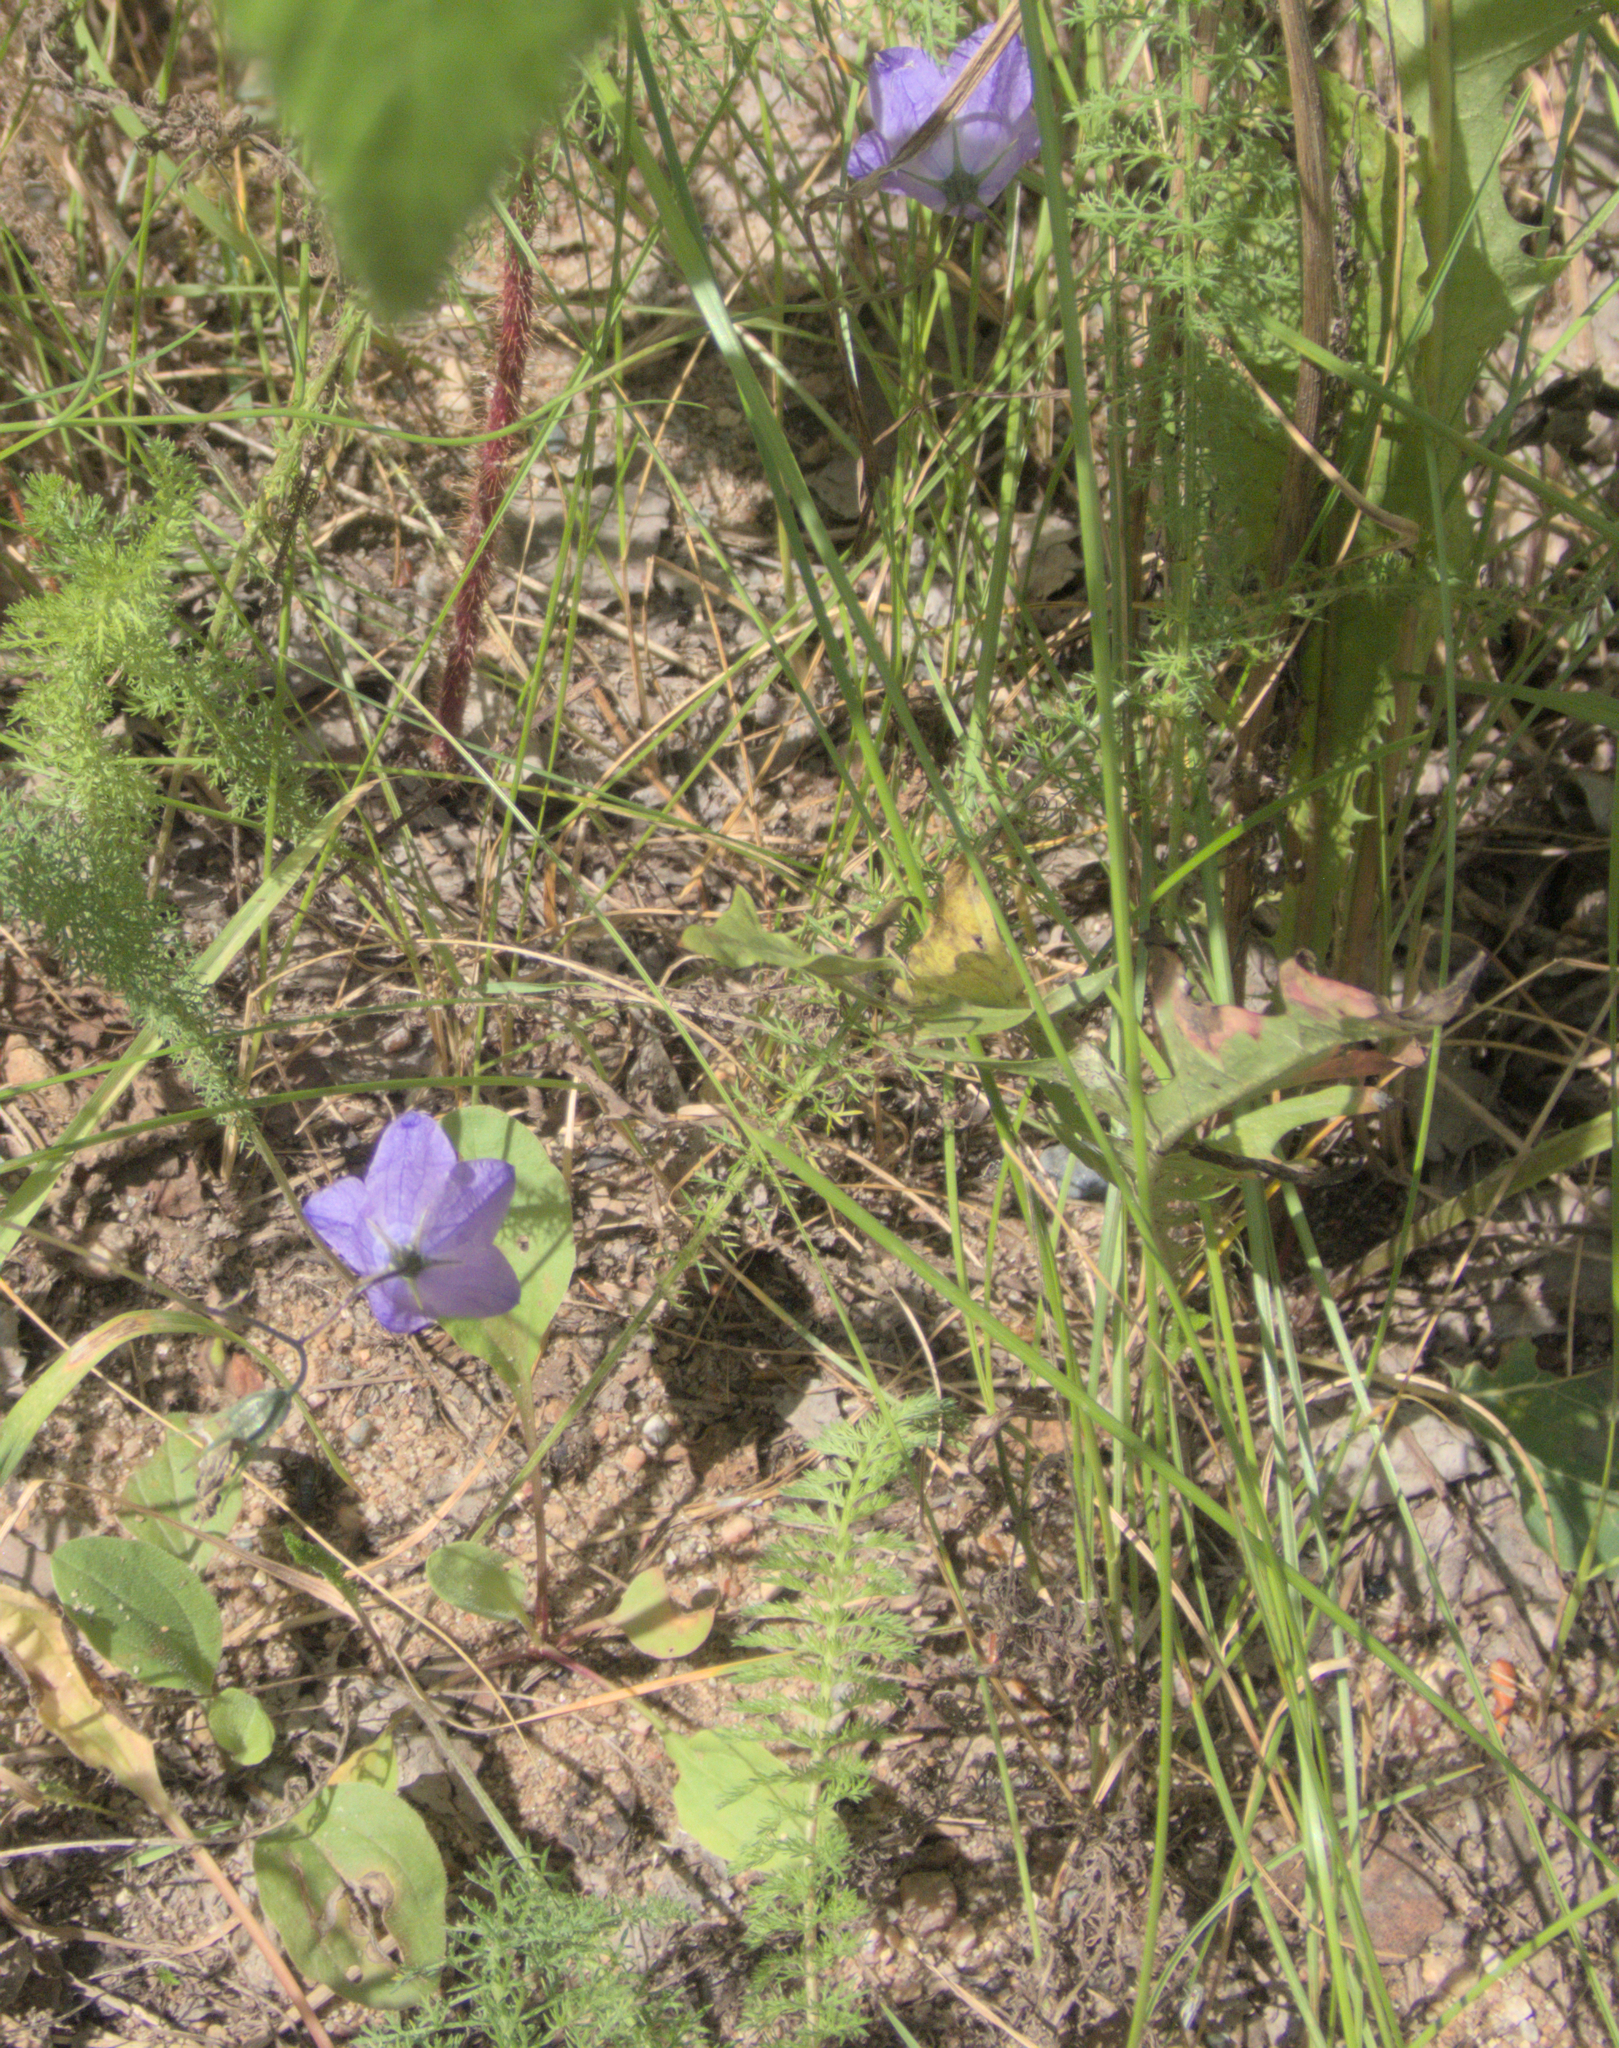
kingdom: Plantae
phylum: Tracheophyta
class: Magnoliopsida
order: Asterales
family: Campanulaceae
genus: Campanula
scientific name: Campanula petiolata
